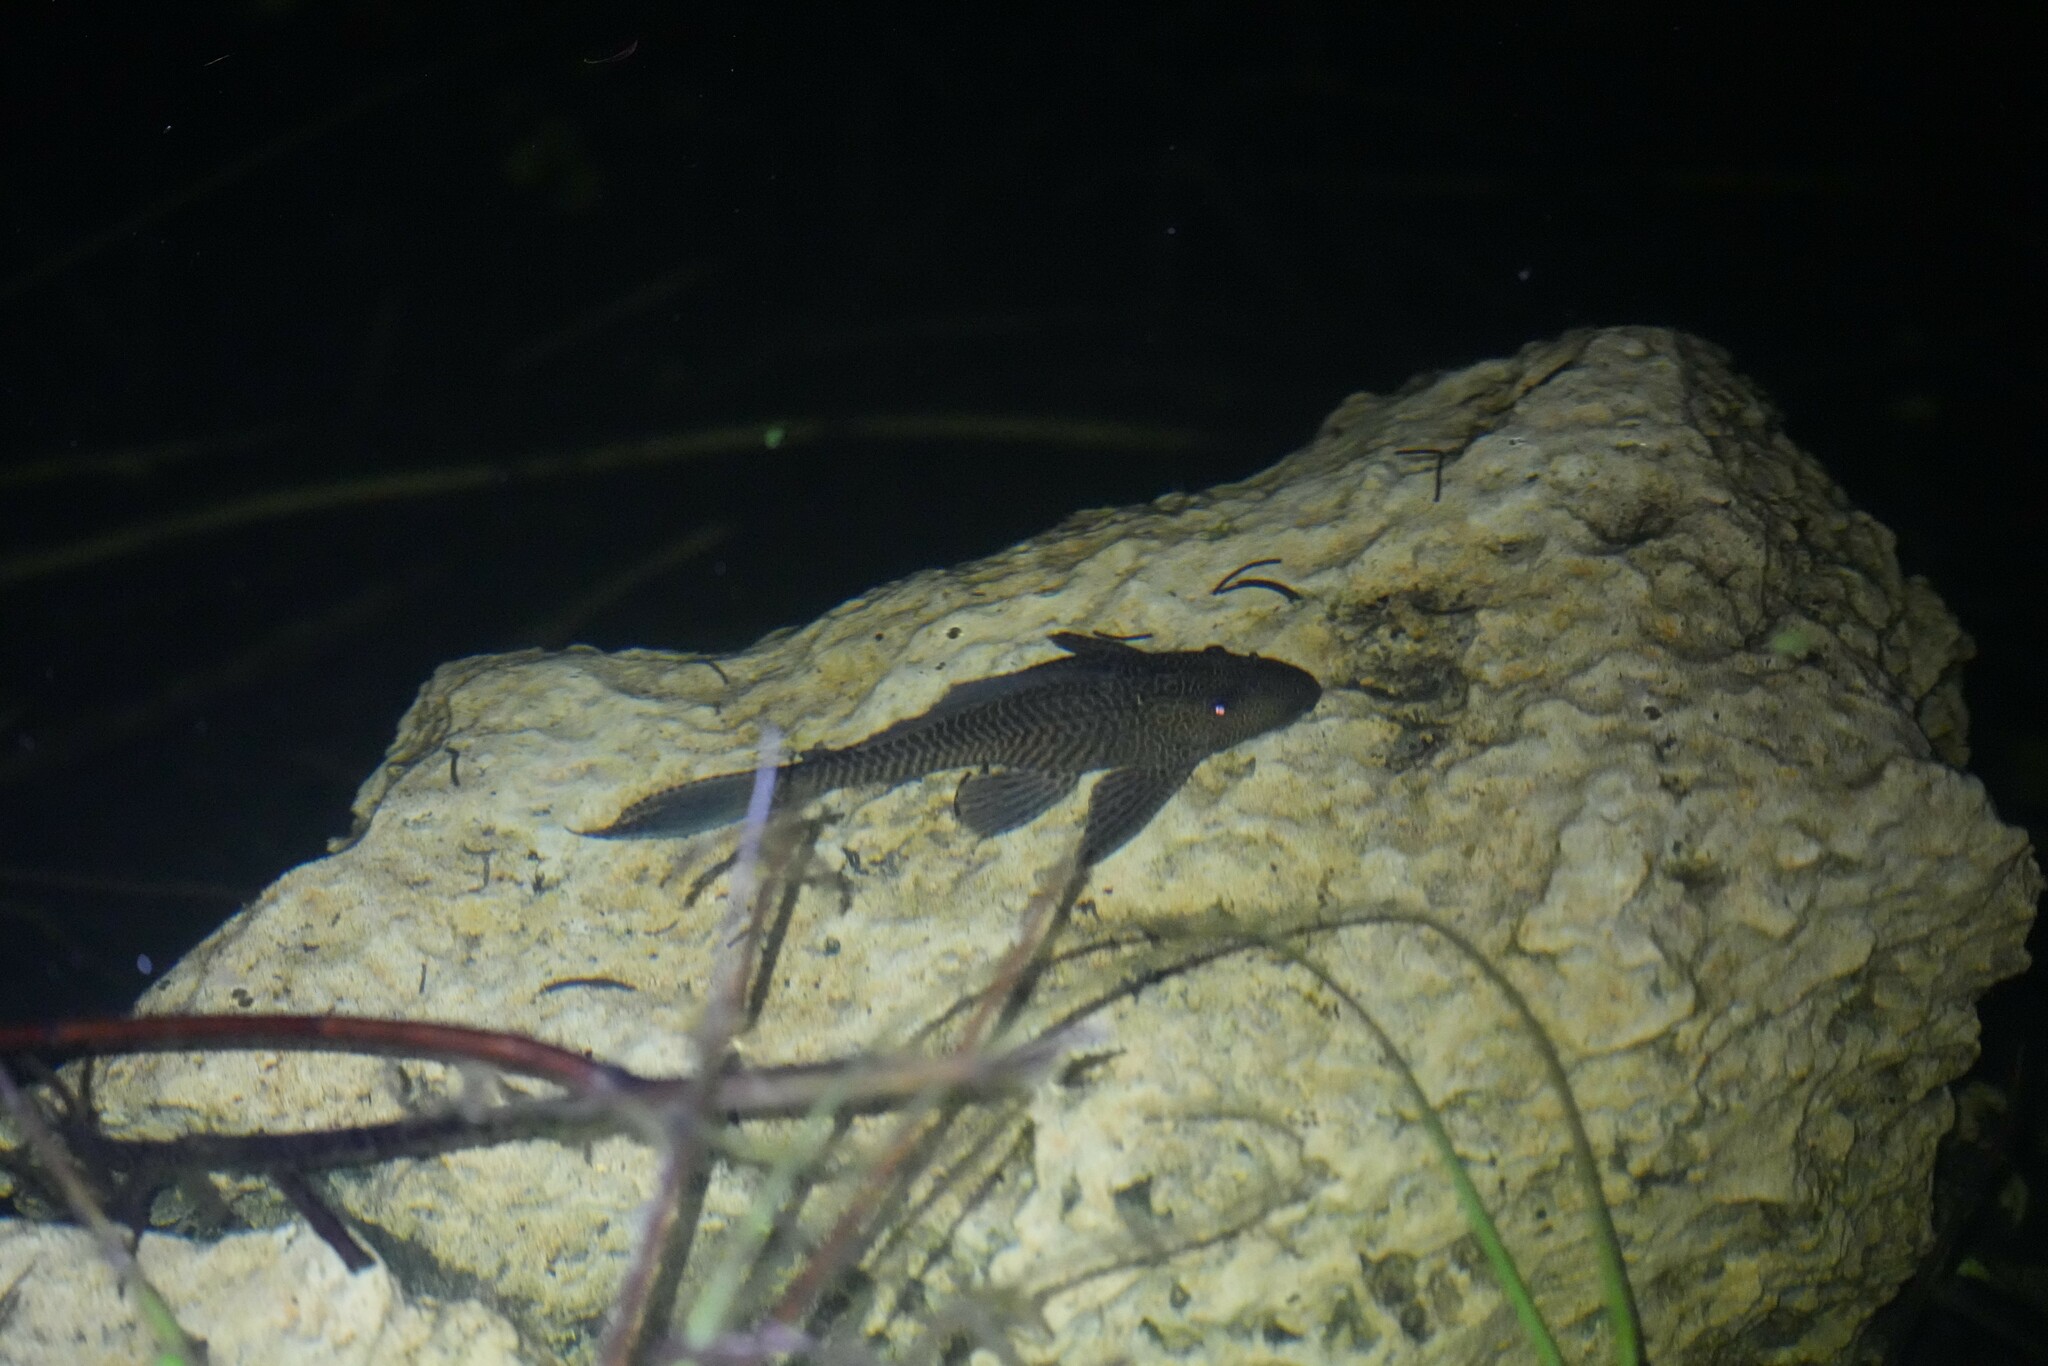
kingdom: Animalia
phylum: Chordata
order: Siluriformes
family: Loricariidae
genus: Pterygoplichthys
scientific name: Pterygoplichthys
